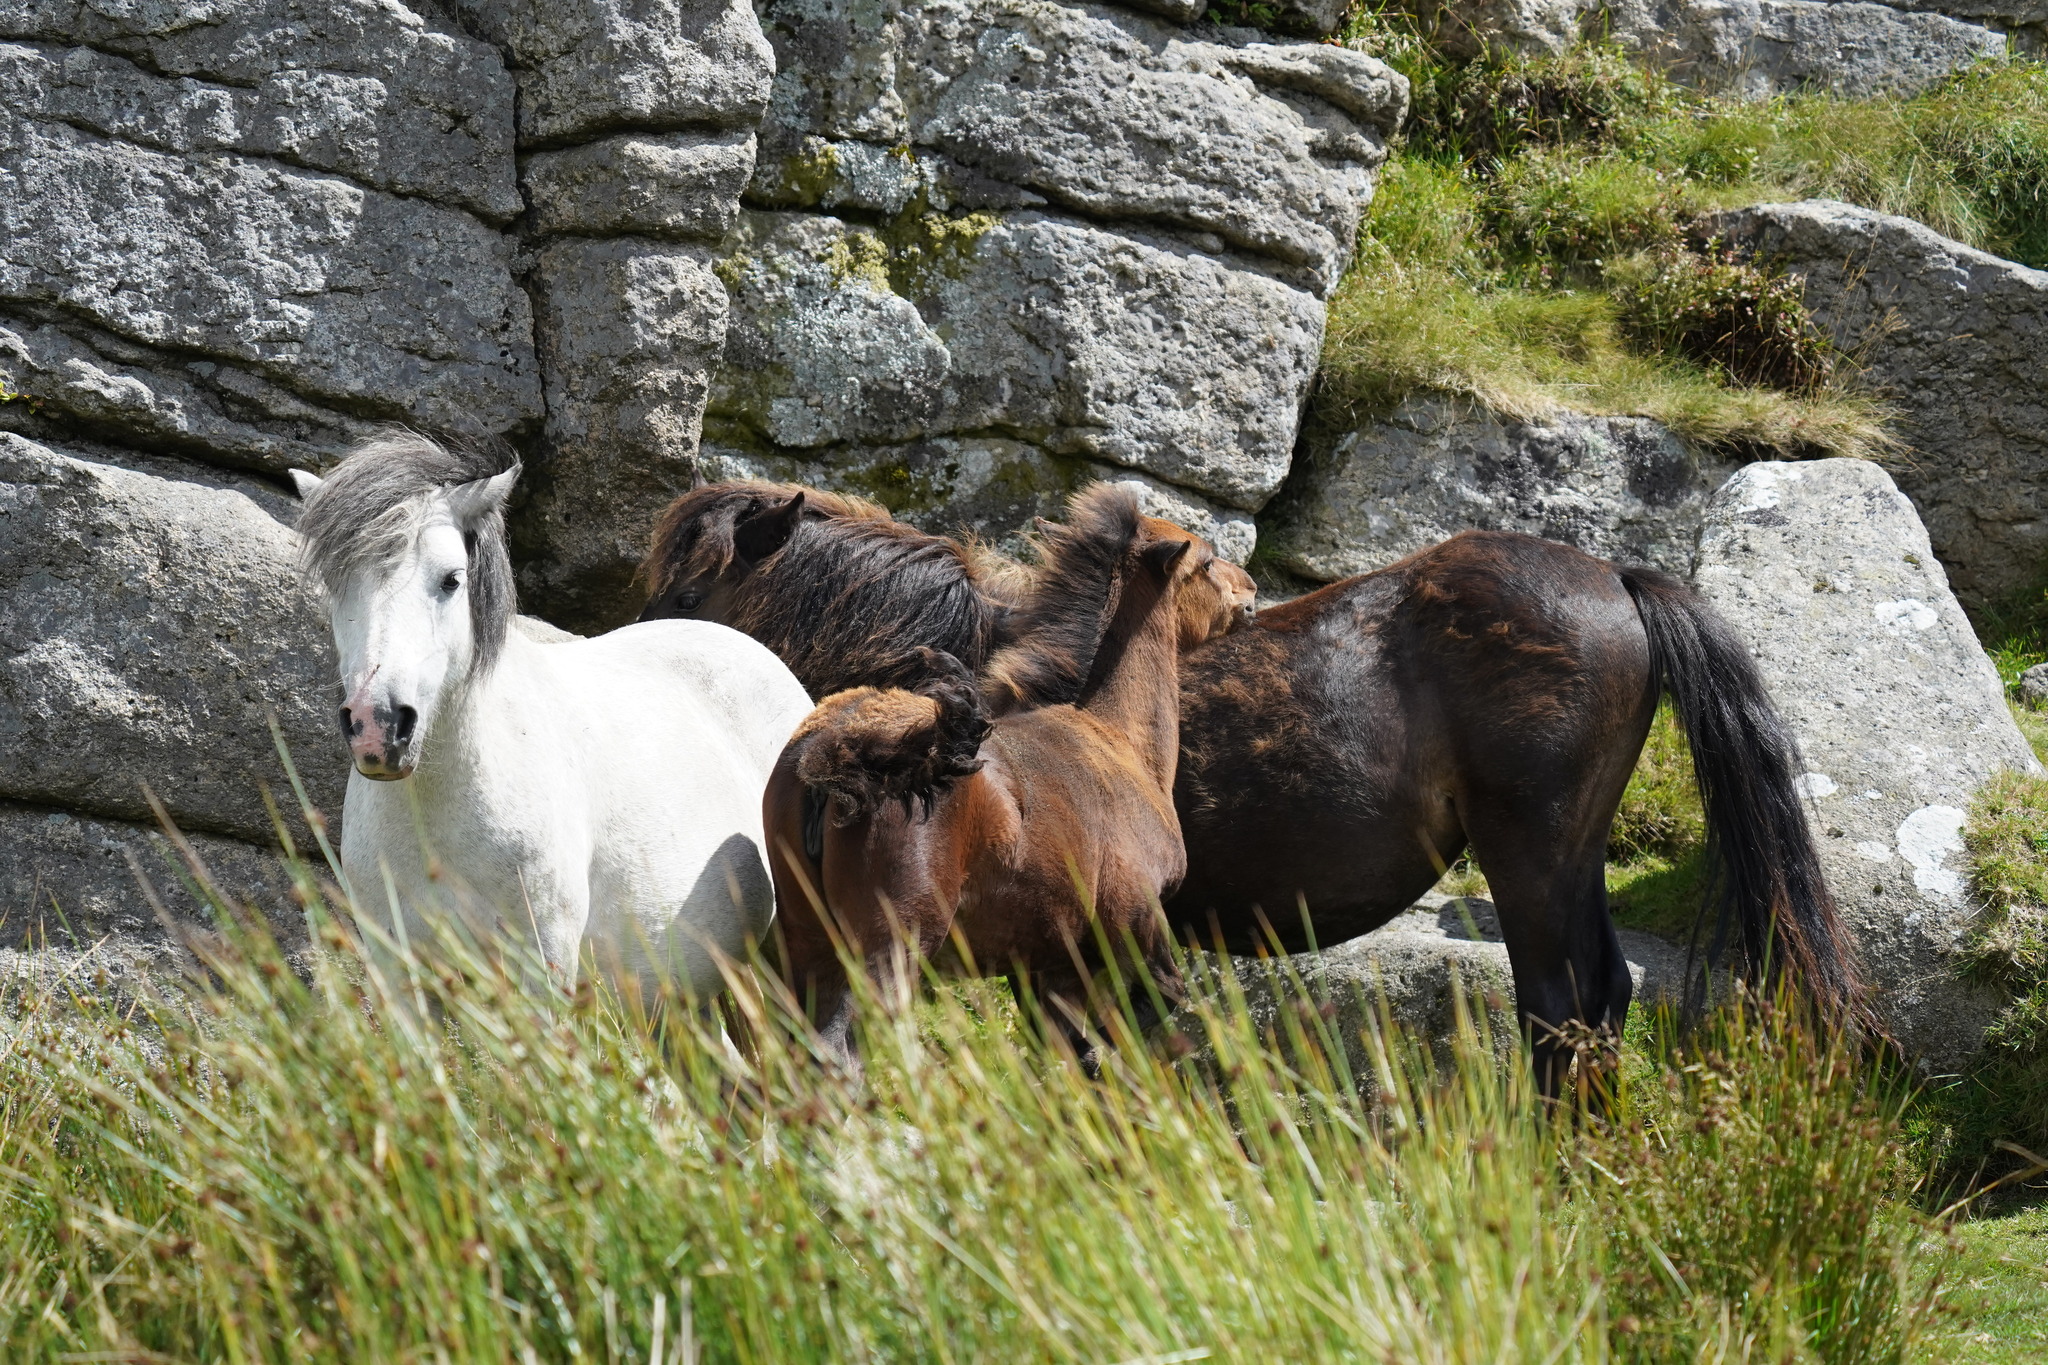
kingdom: Animalia
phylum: Chordata
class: Mammalia
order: Perissodactyla
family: Equidae
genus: Equus
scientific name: Equus caballus
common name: Horse
